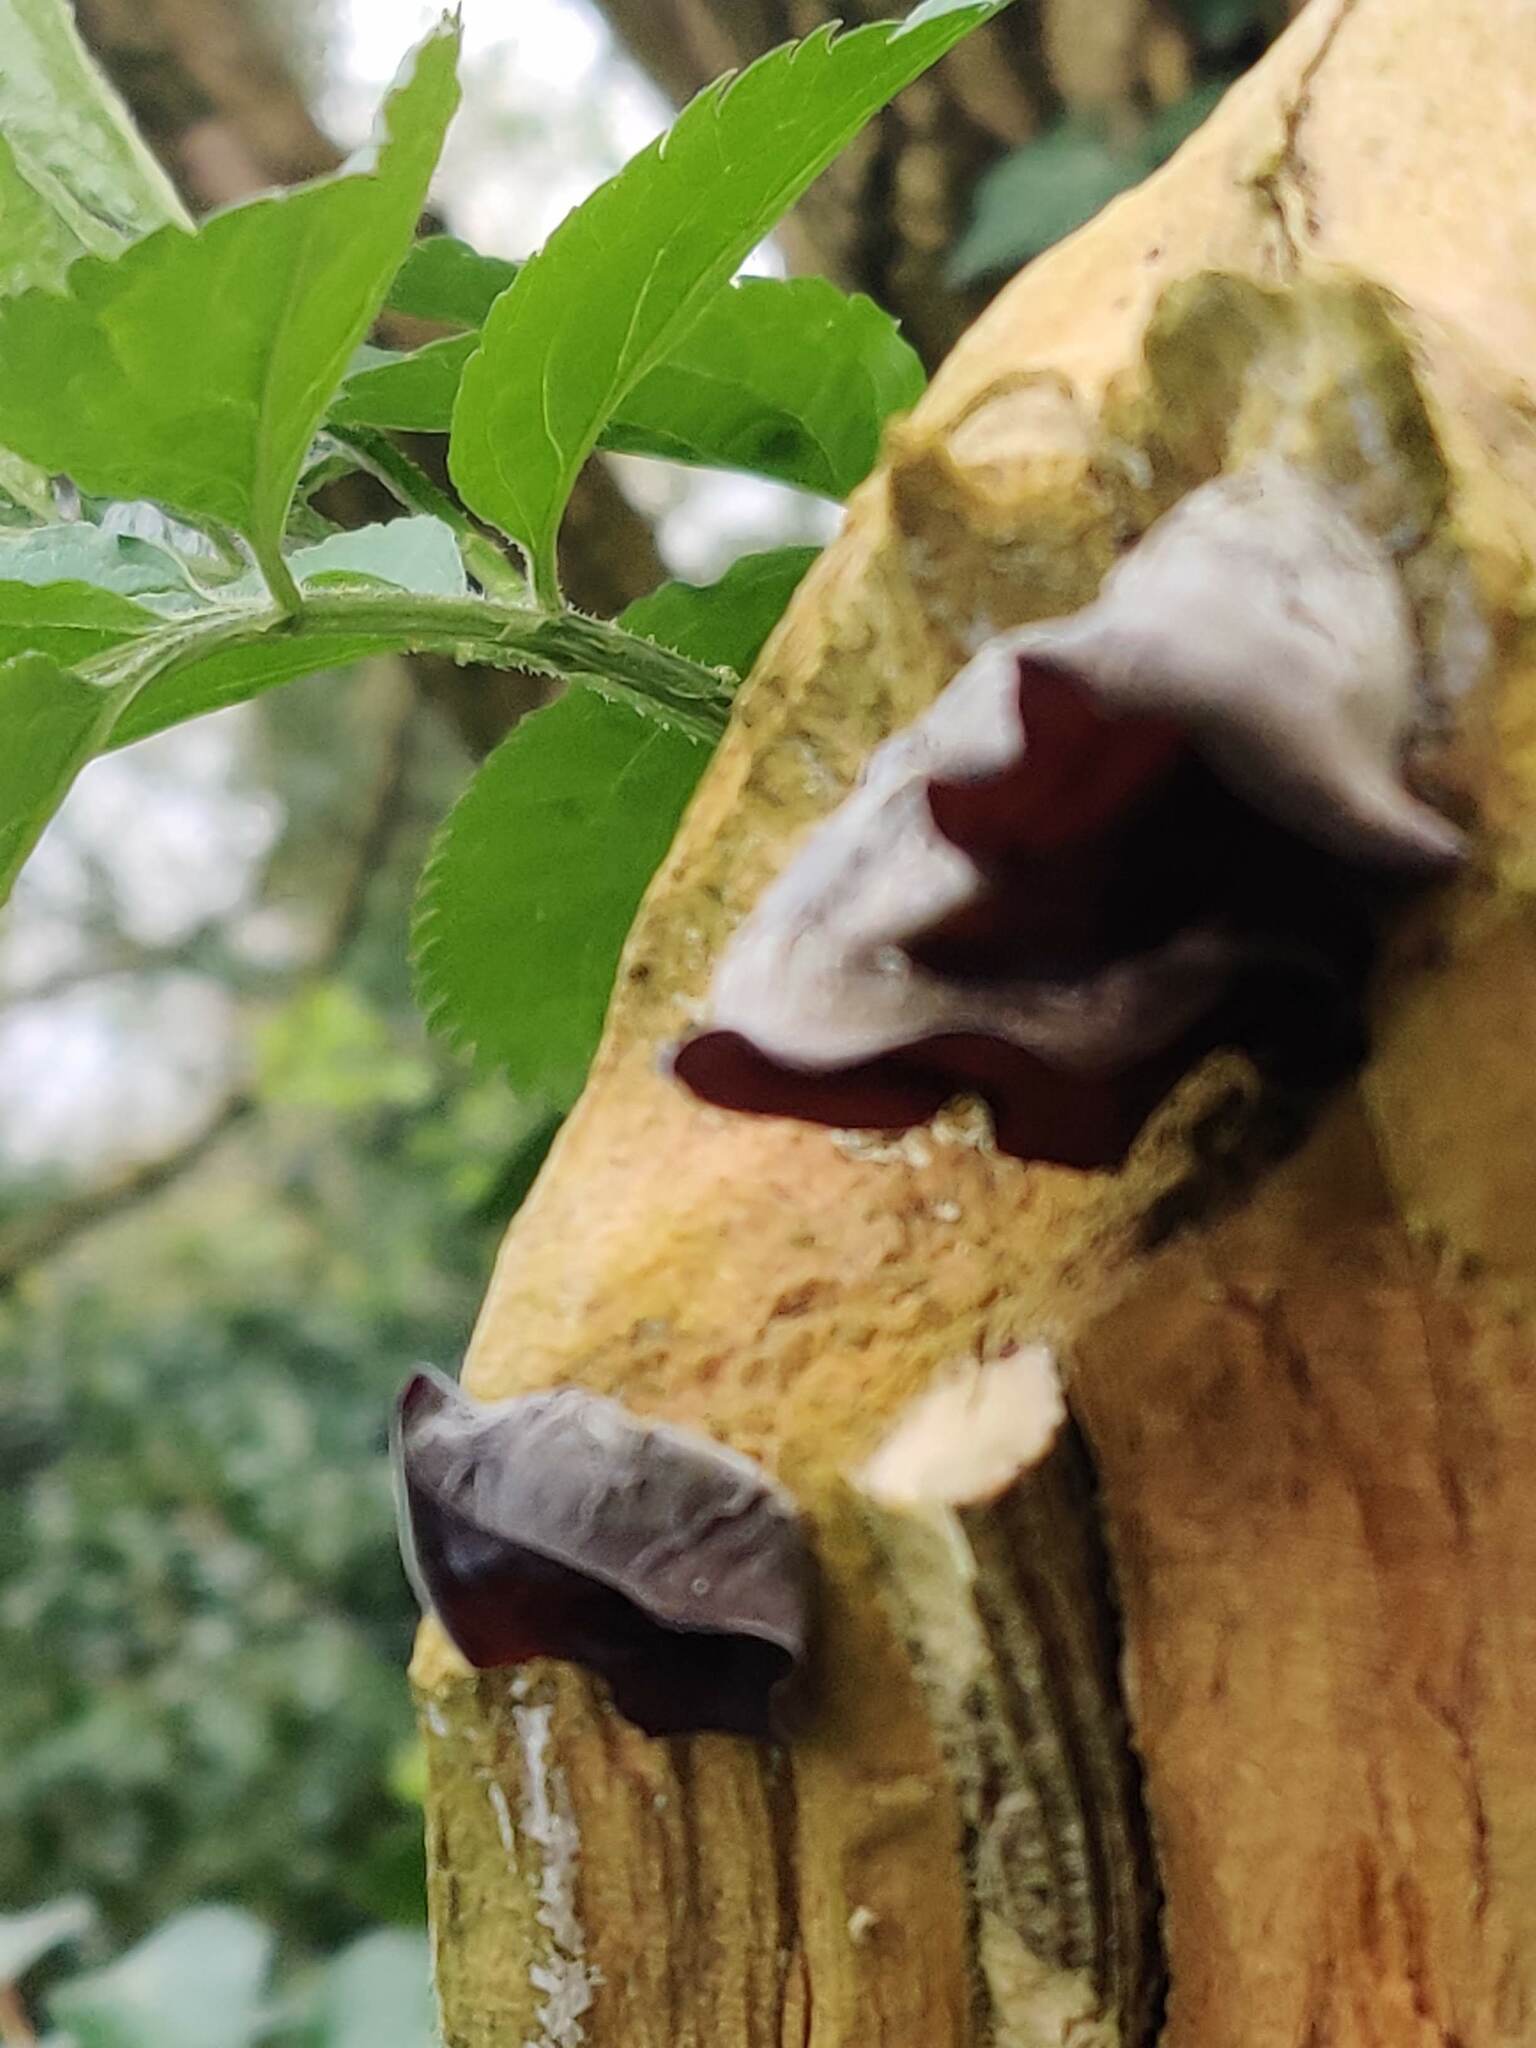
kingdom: Fungi
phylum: Basidiomycota
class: Agaricomycetes
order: Auriculariales
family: Auriculariaceae
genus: Auricularia
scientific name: Auricularia auricula-judae
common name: Jelly ear
